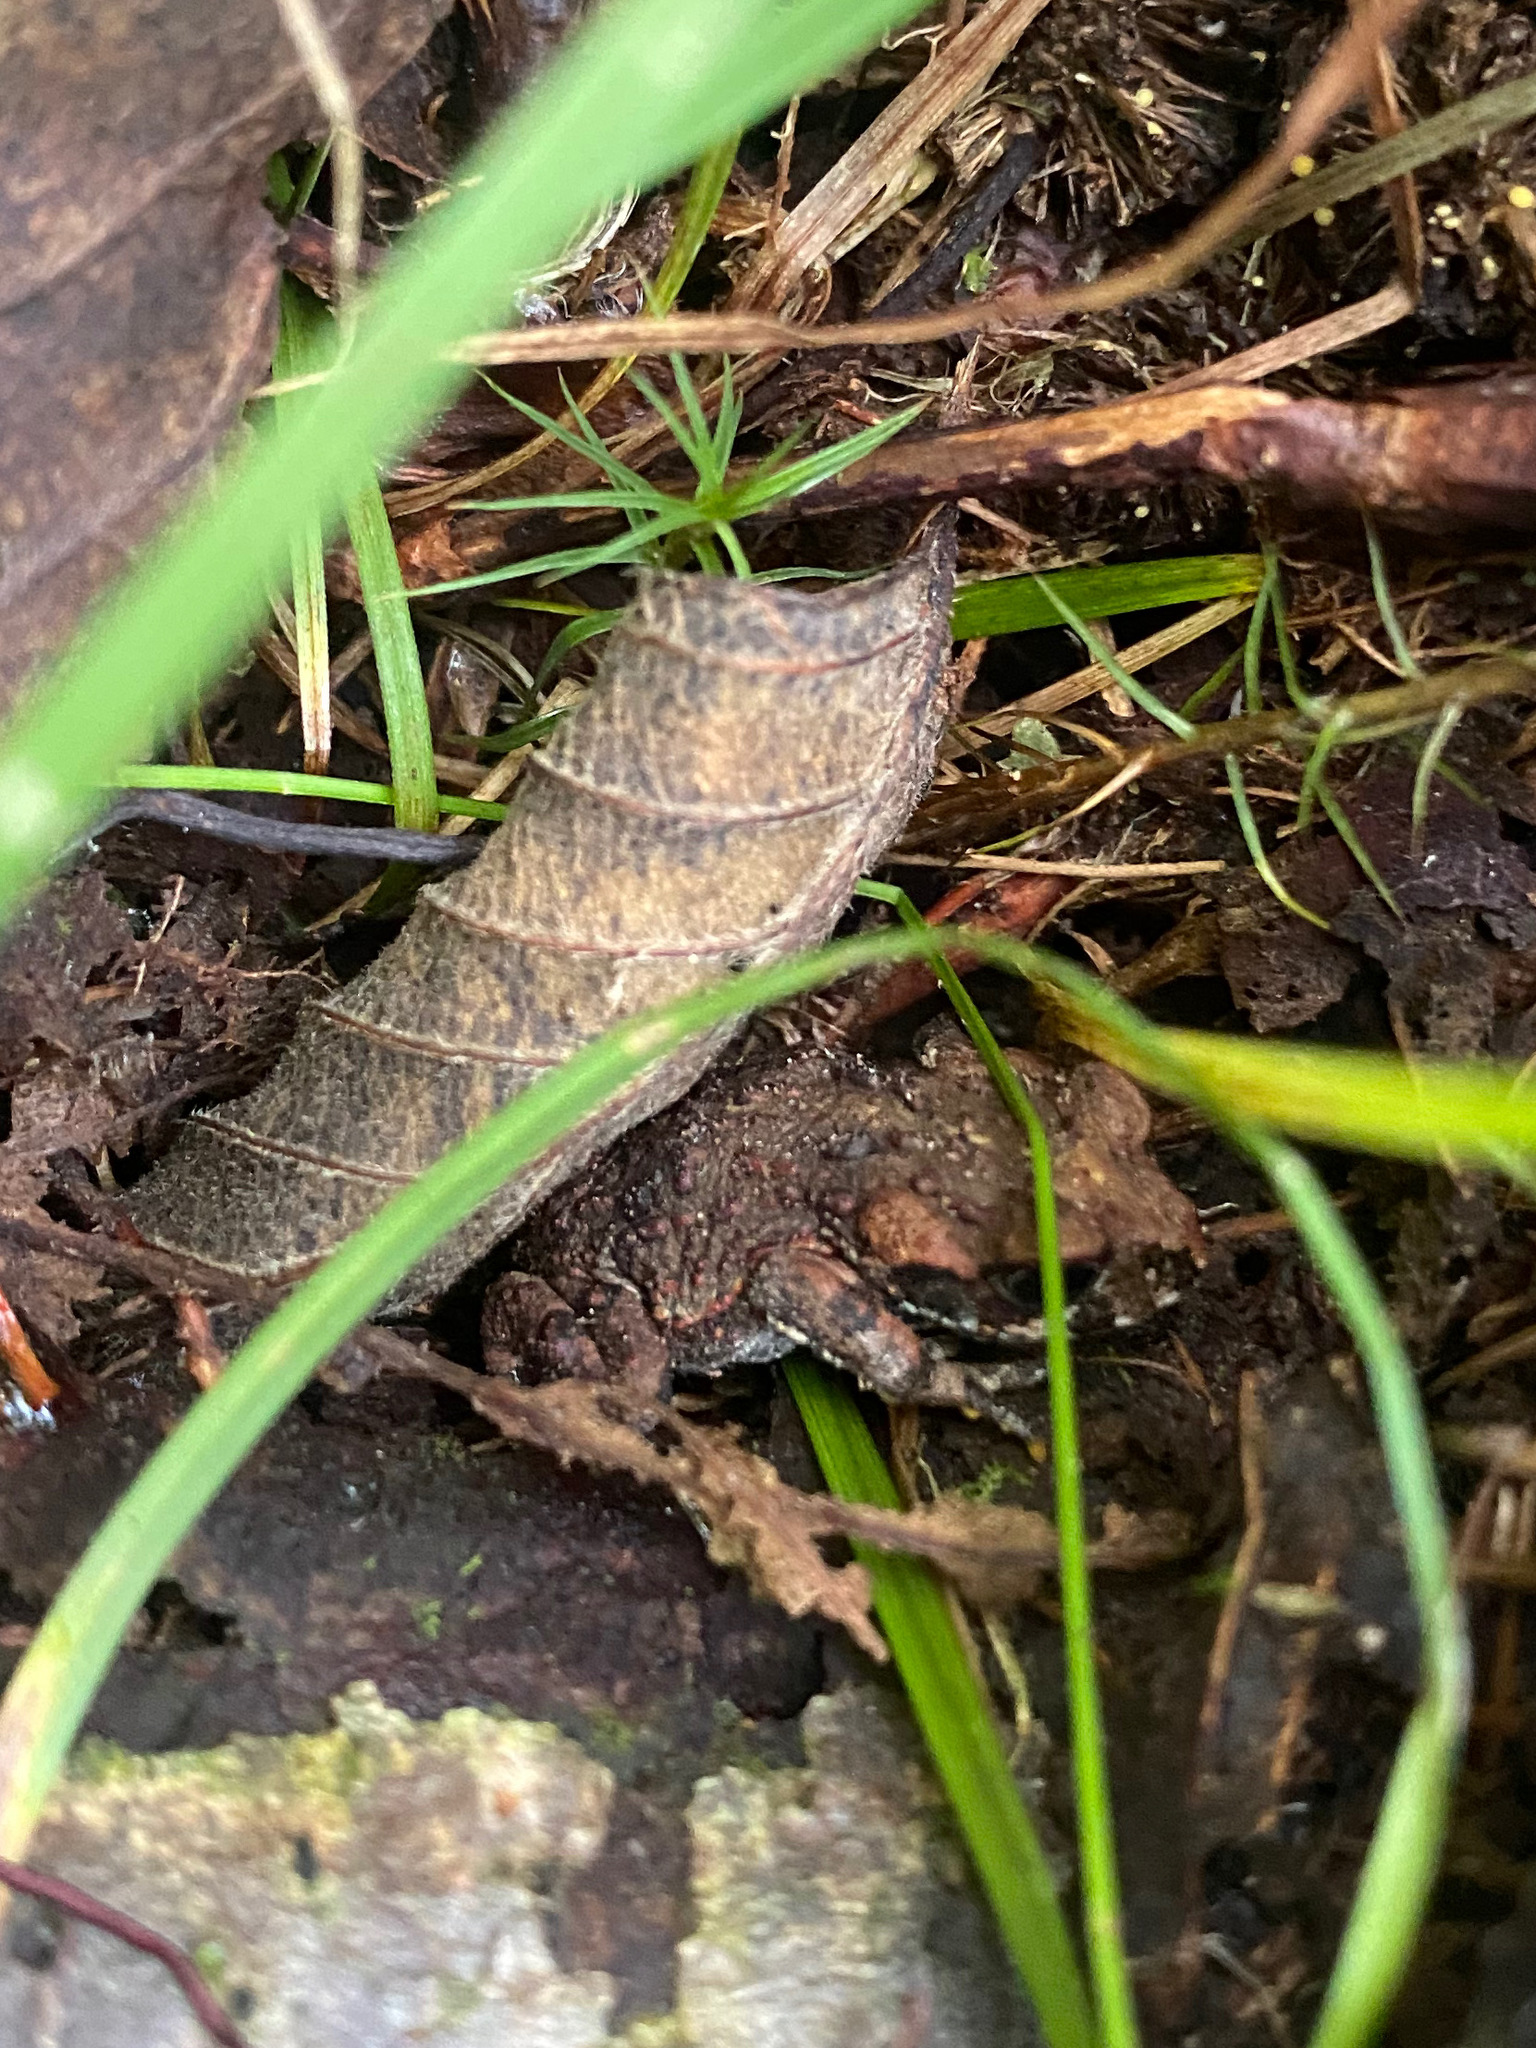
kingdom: Animalia
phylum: Chordata
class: Amphibia
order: Anura
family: Bufonidae
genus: Anaxyrus
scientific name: Anaxyrus boreas
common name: Western toad
